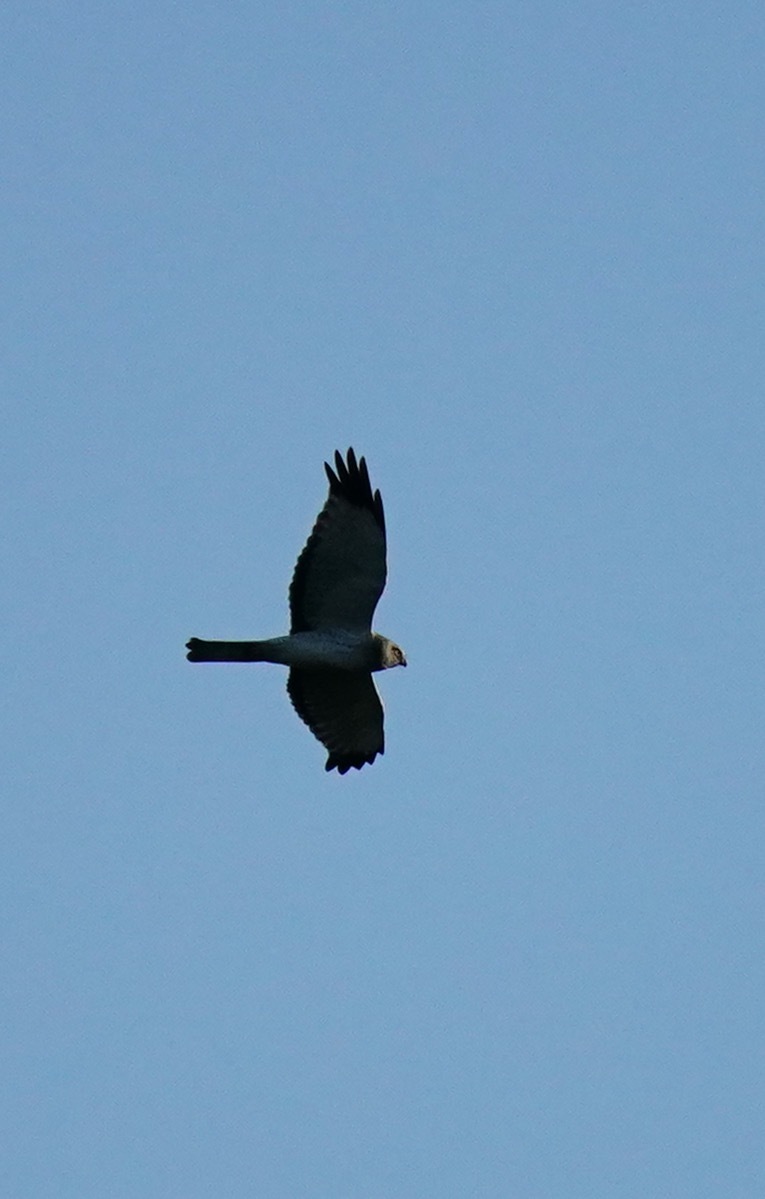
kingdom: Animalia
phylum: Chordata
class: Aves
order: Accipitriformes
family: Accipitridae
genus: Circus
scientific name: Circus cyaneus
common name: Hen harrier
